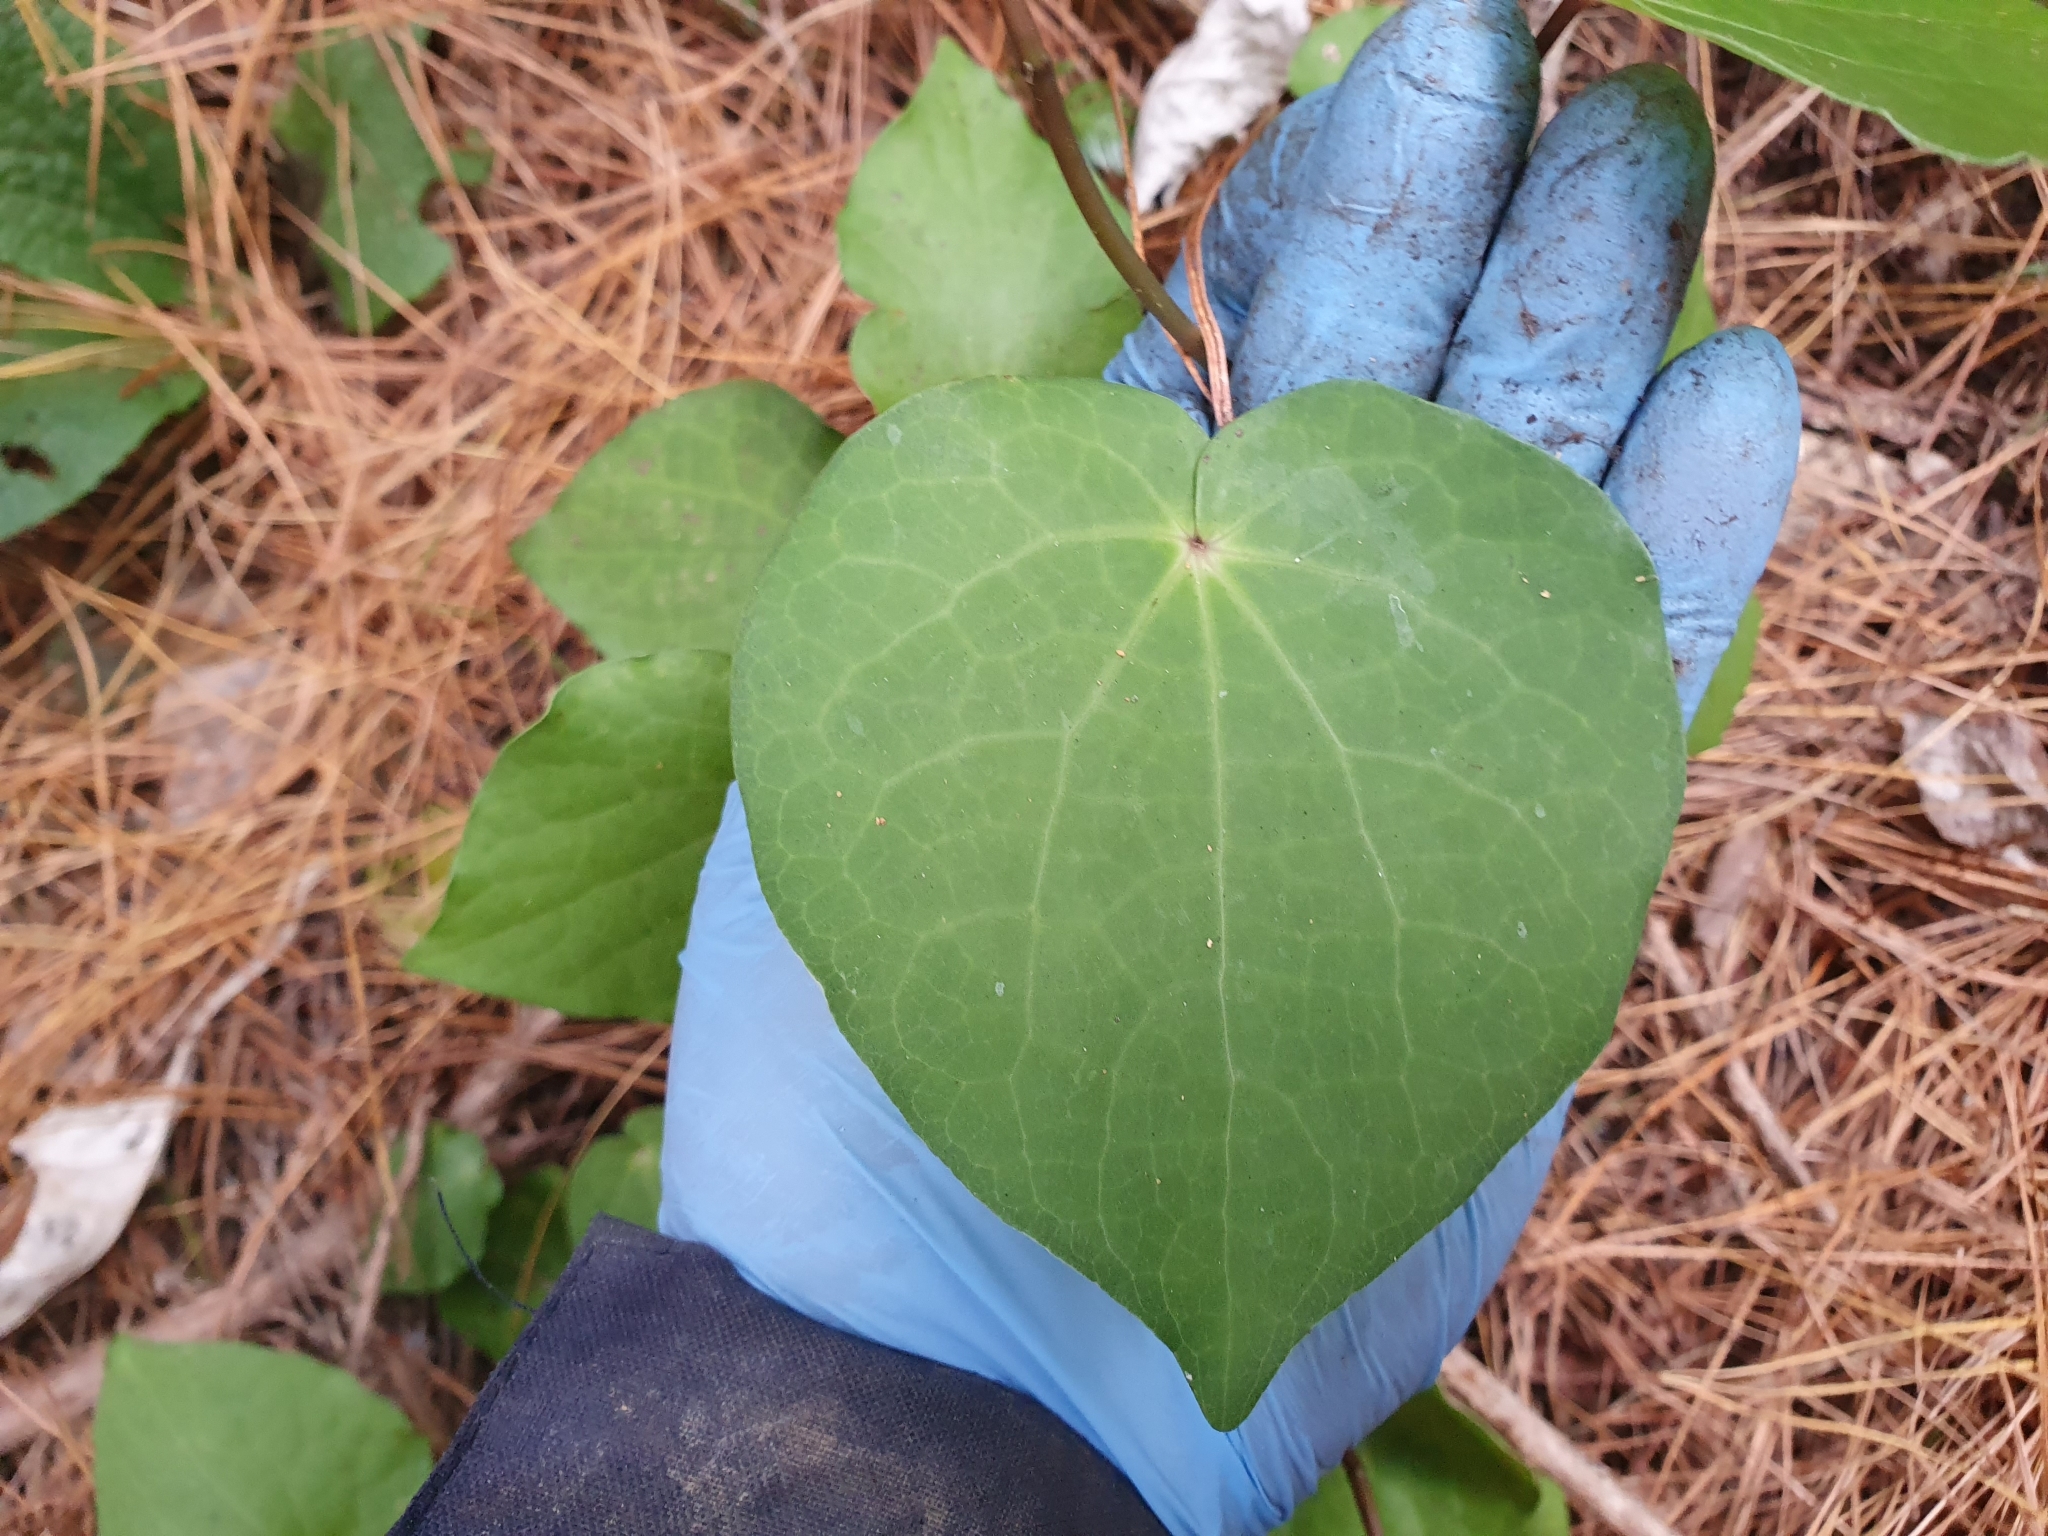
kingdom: Plantae
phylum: Tracheophyta
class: Magnoliopsida
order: Piperales
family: Piperaceae
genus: Macropiper
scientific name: Macropiper excelsum
